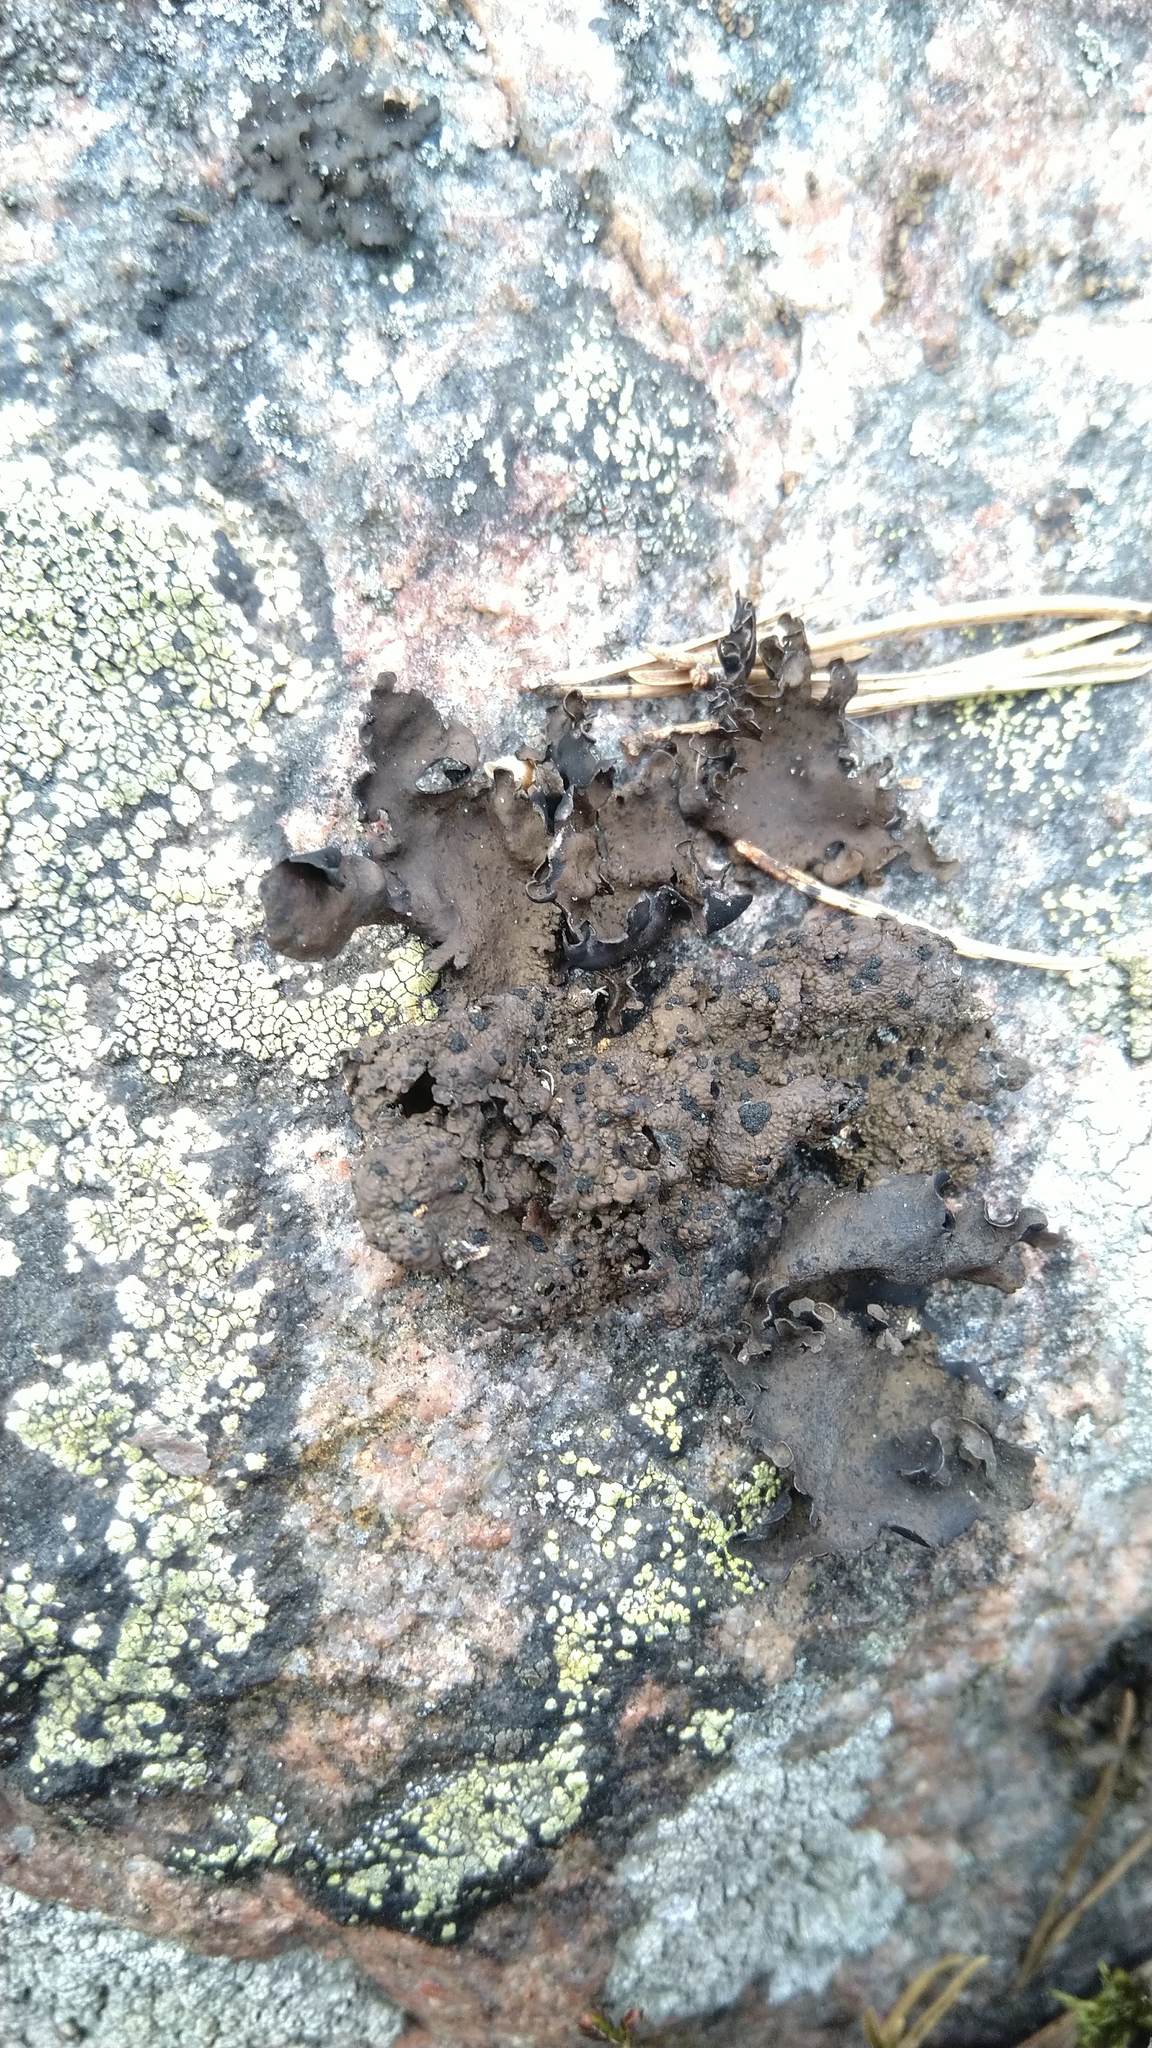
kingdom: Fungi
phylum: Ascomycota
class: Lecanoromycetes
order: Umbilicariales
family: Umbilicariaceae
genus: Umbilicaria
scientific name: Umbilicaria hyperborea
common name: Blistered rock tripe
